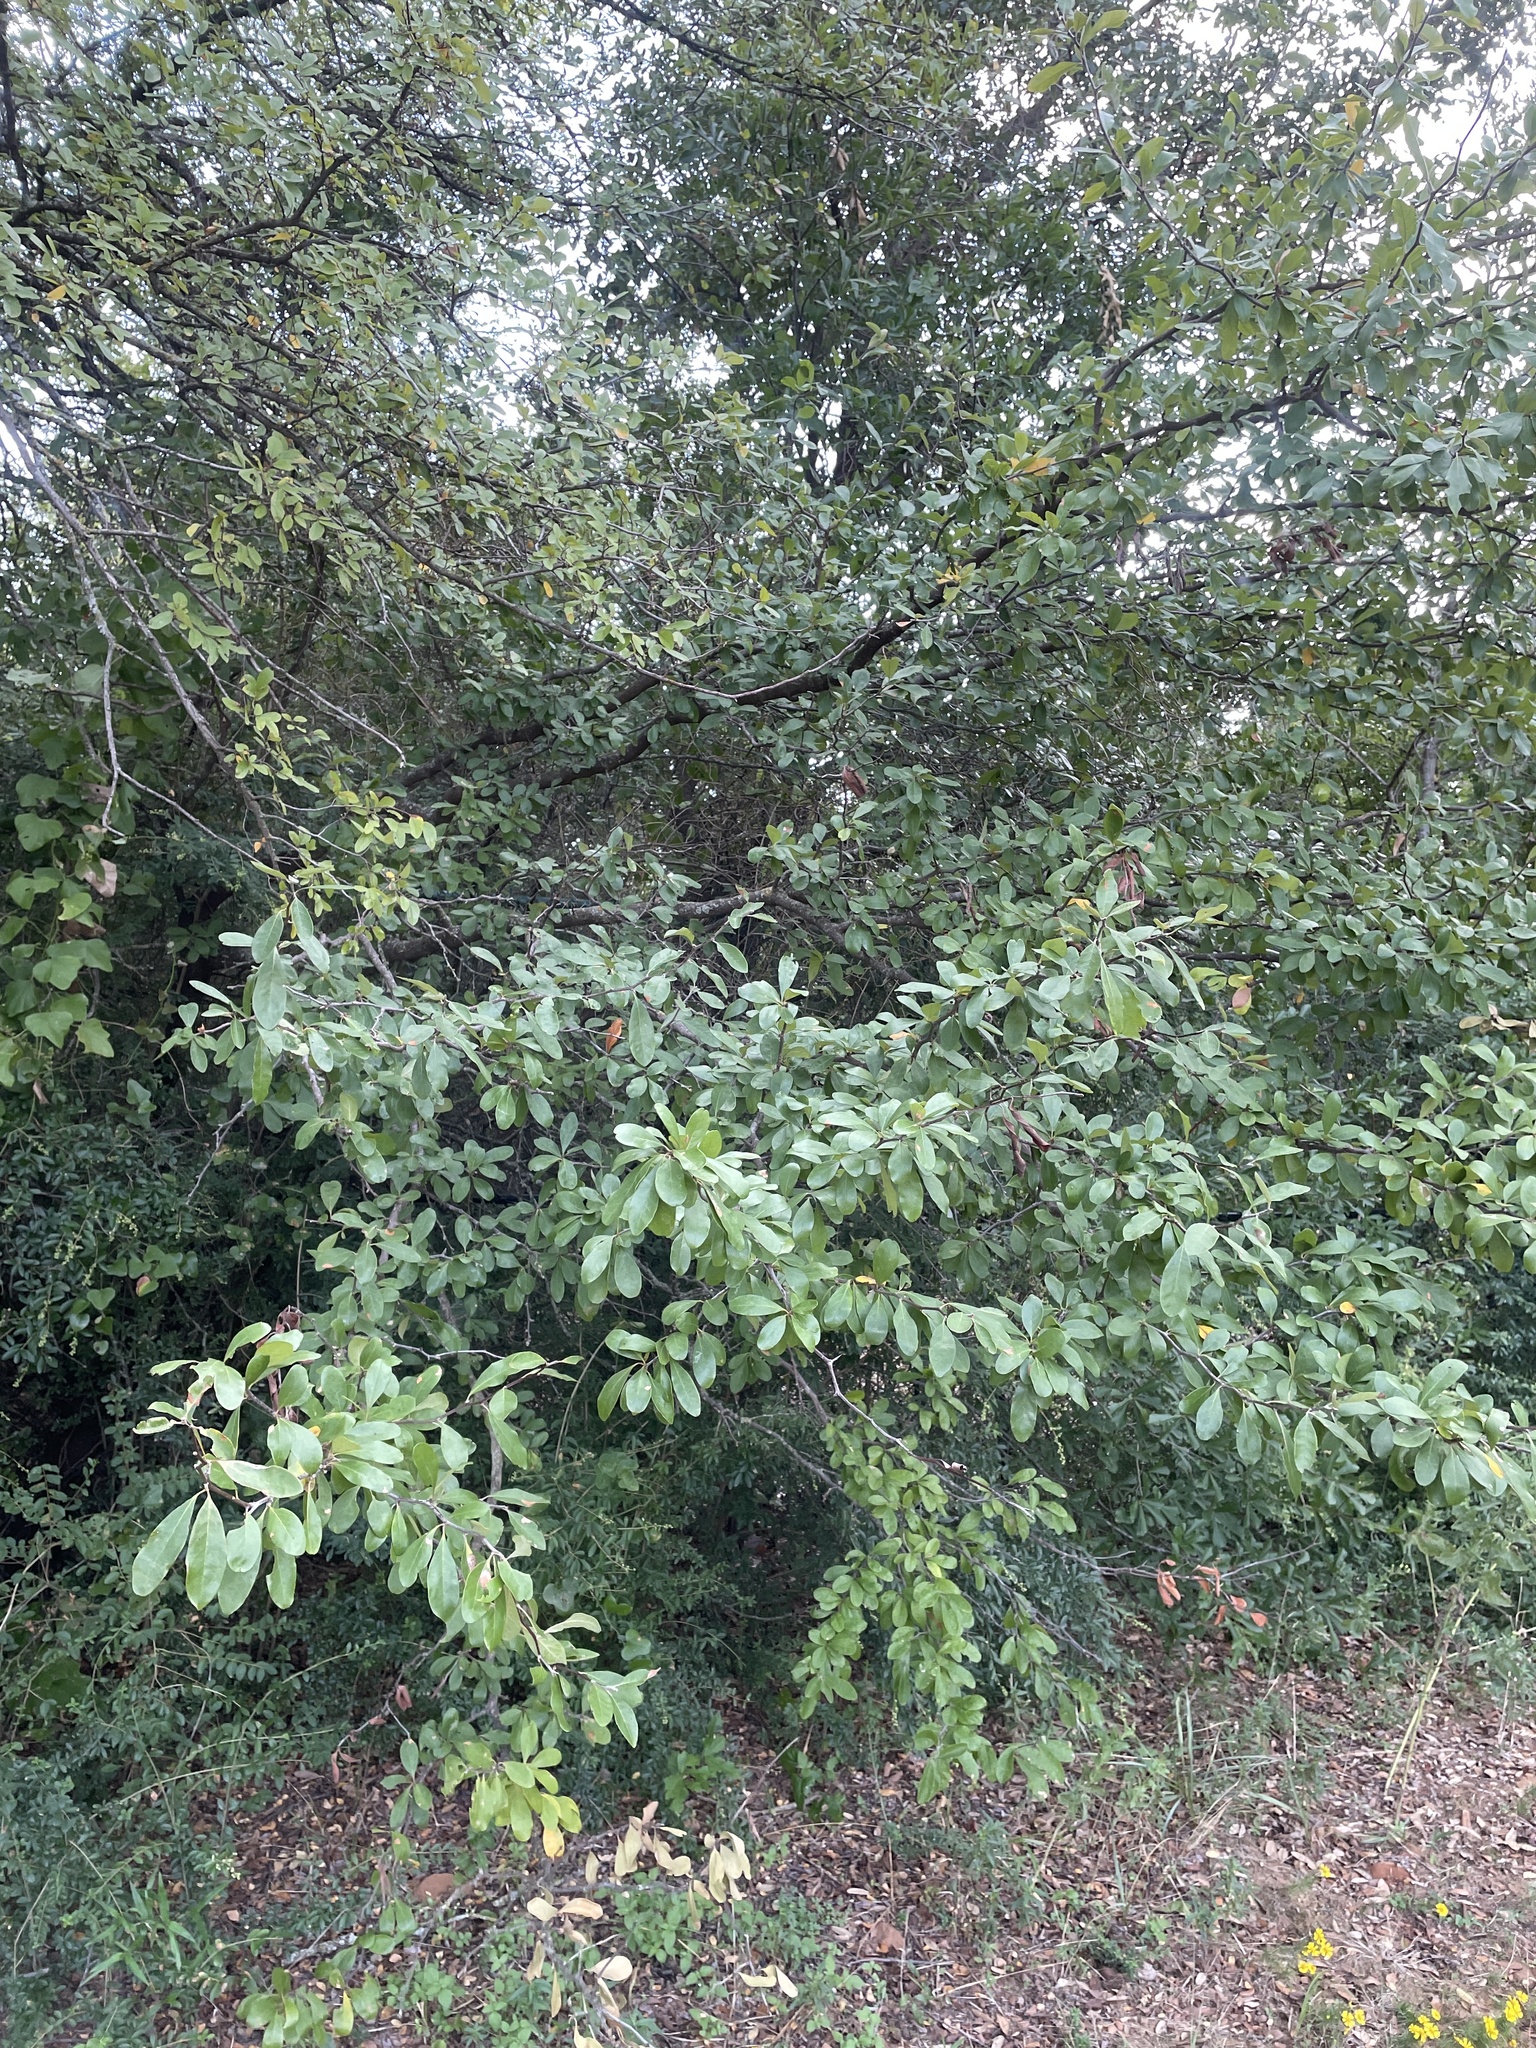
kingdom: Plantae
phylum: Tracheophyta
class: Magnoliopsida
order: Ericales
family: Sapotaceae
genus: Sideroxylon
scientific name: Sideroxylon lanuginosum
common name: Chittamwood
